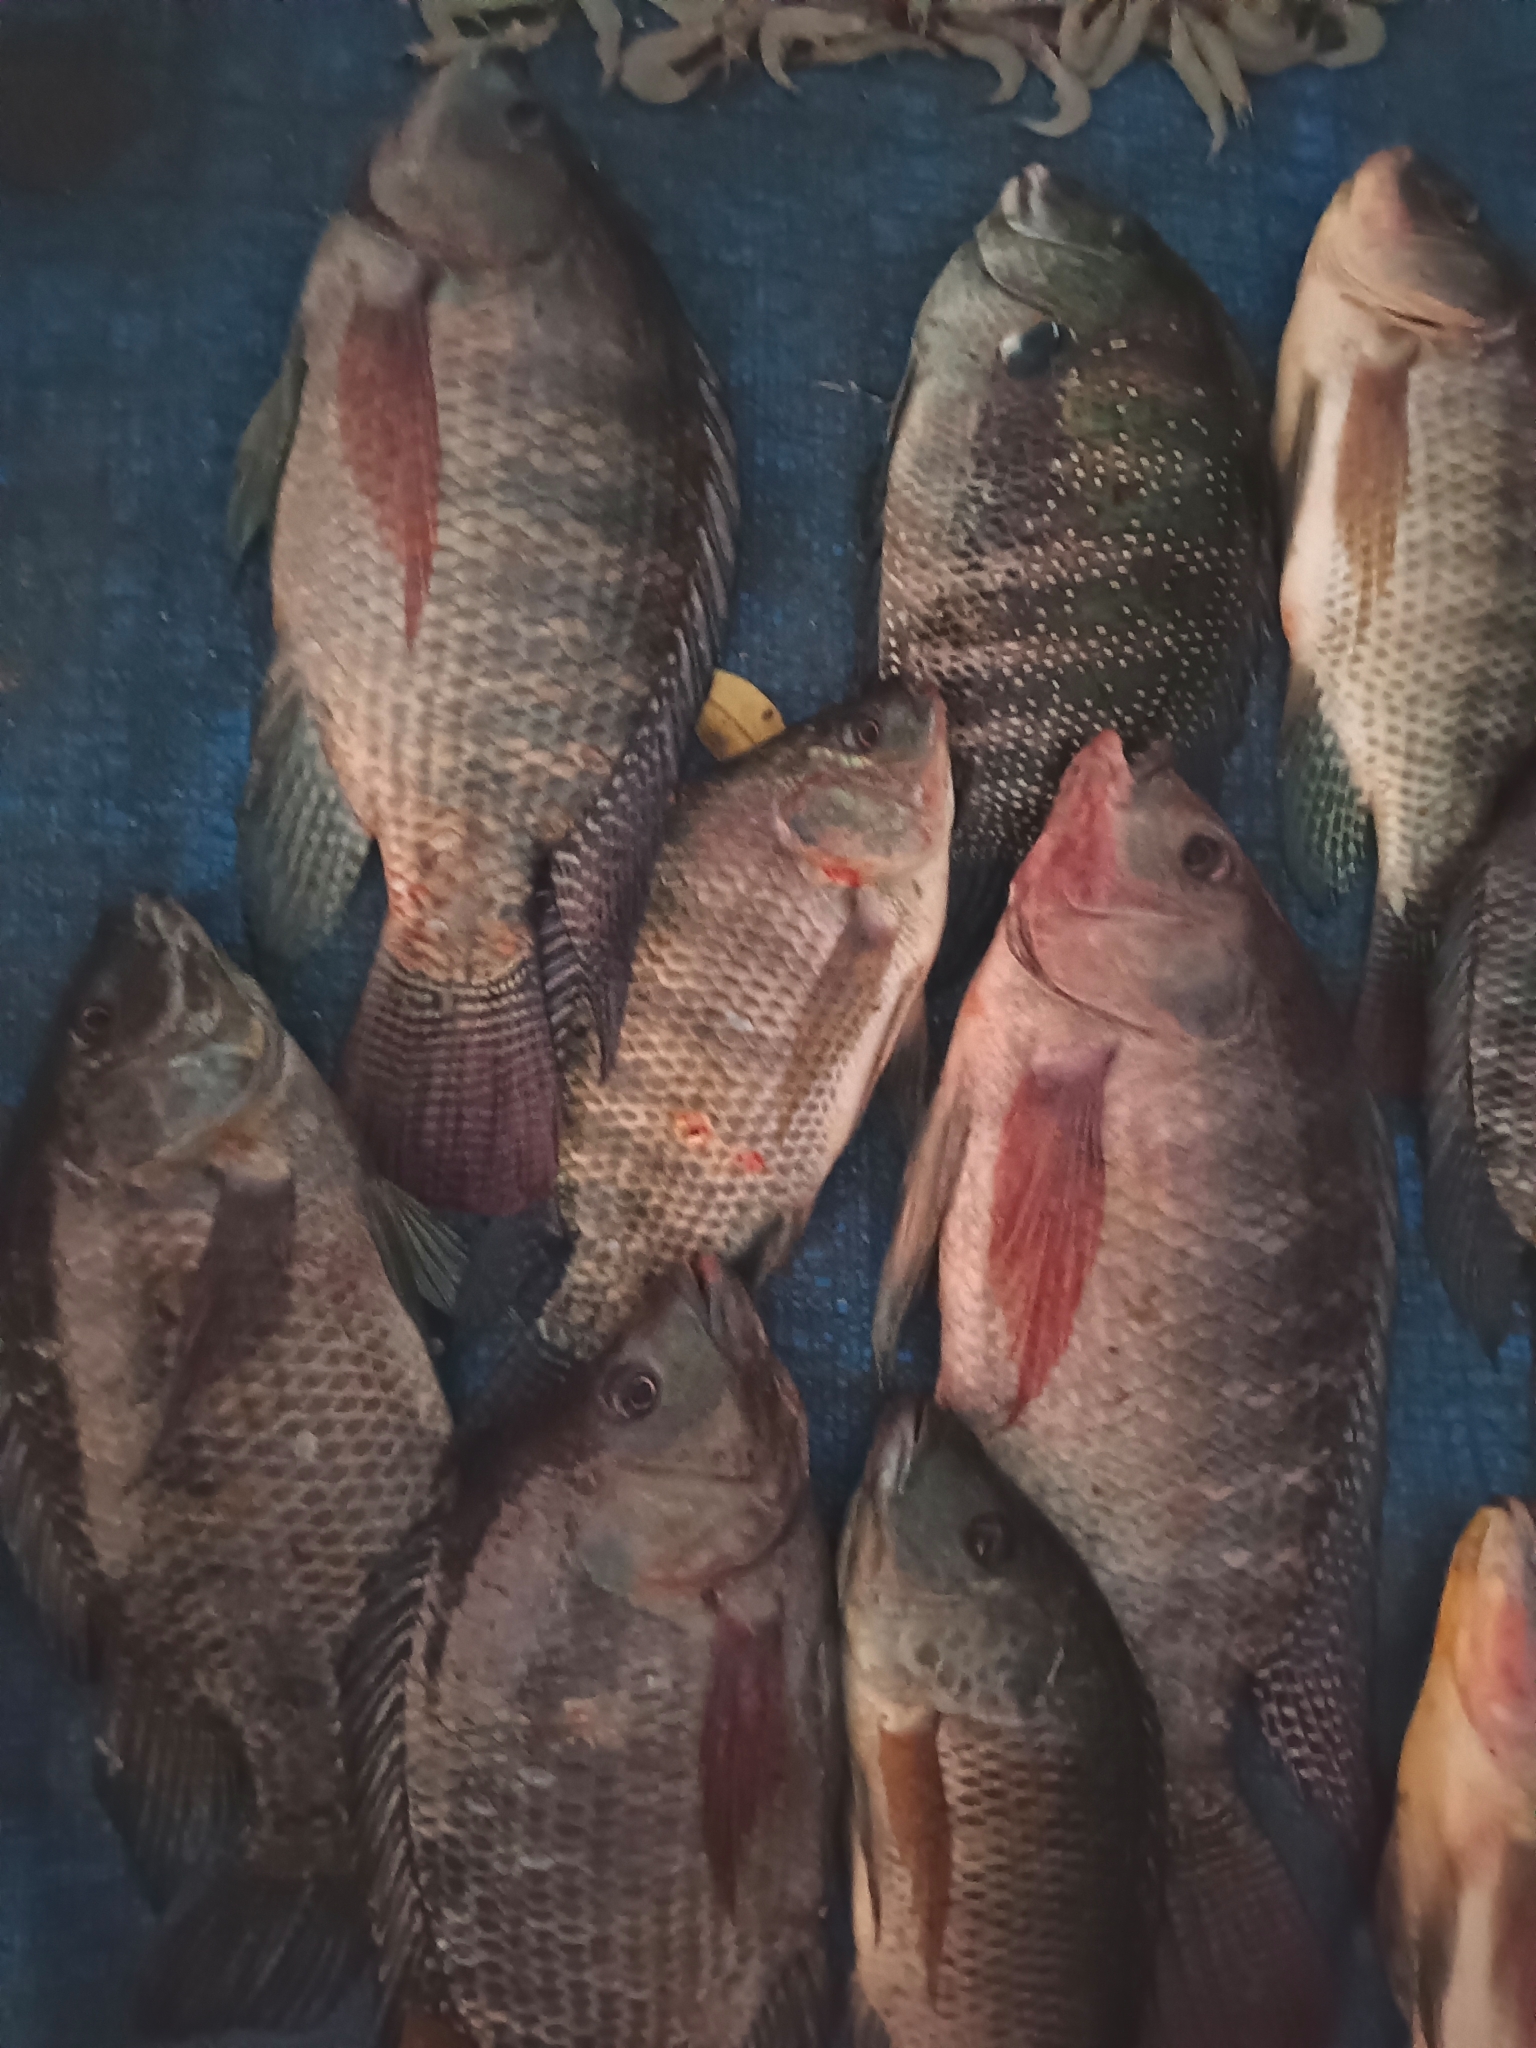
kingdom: Animalia
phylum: Chordata
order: Perciformes
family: Cichlidae
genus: Oreochromis
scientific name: Oreochromis niloticus
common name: Nile tilapia
